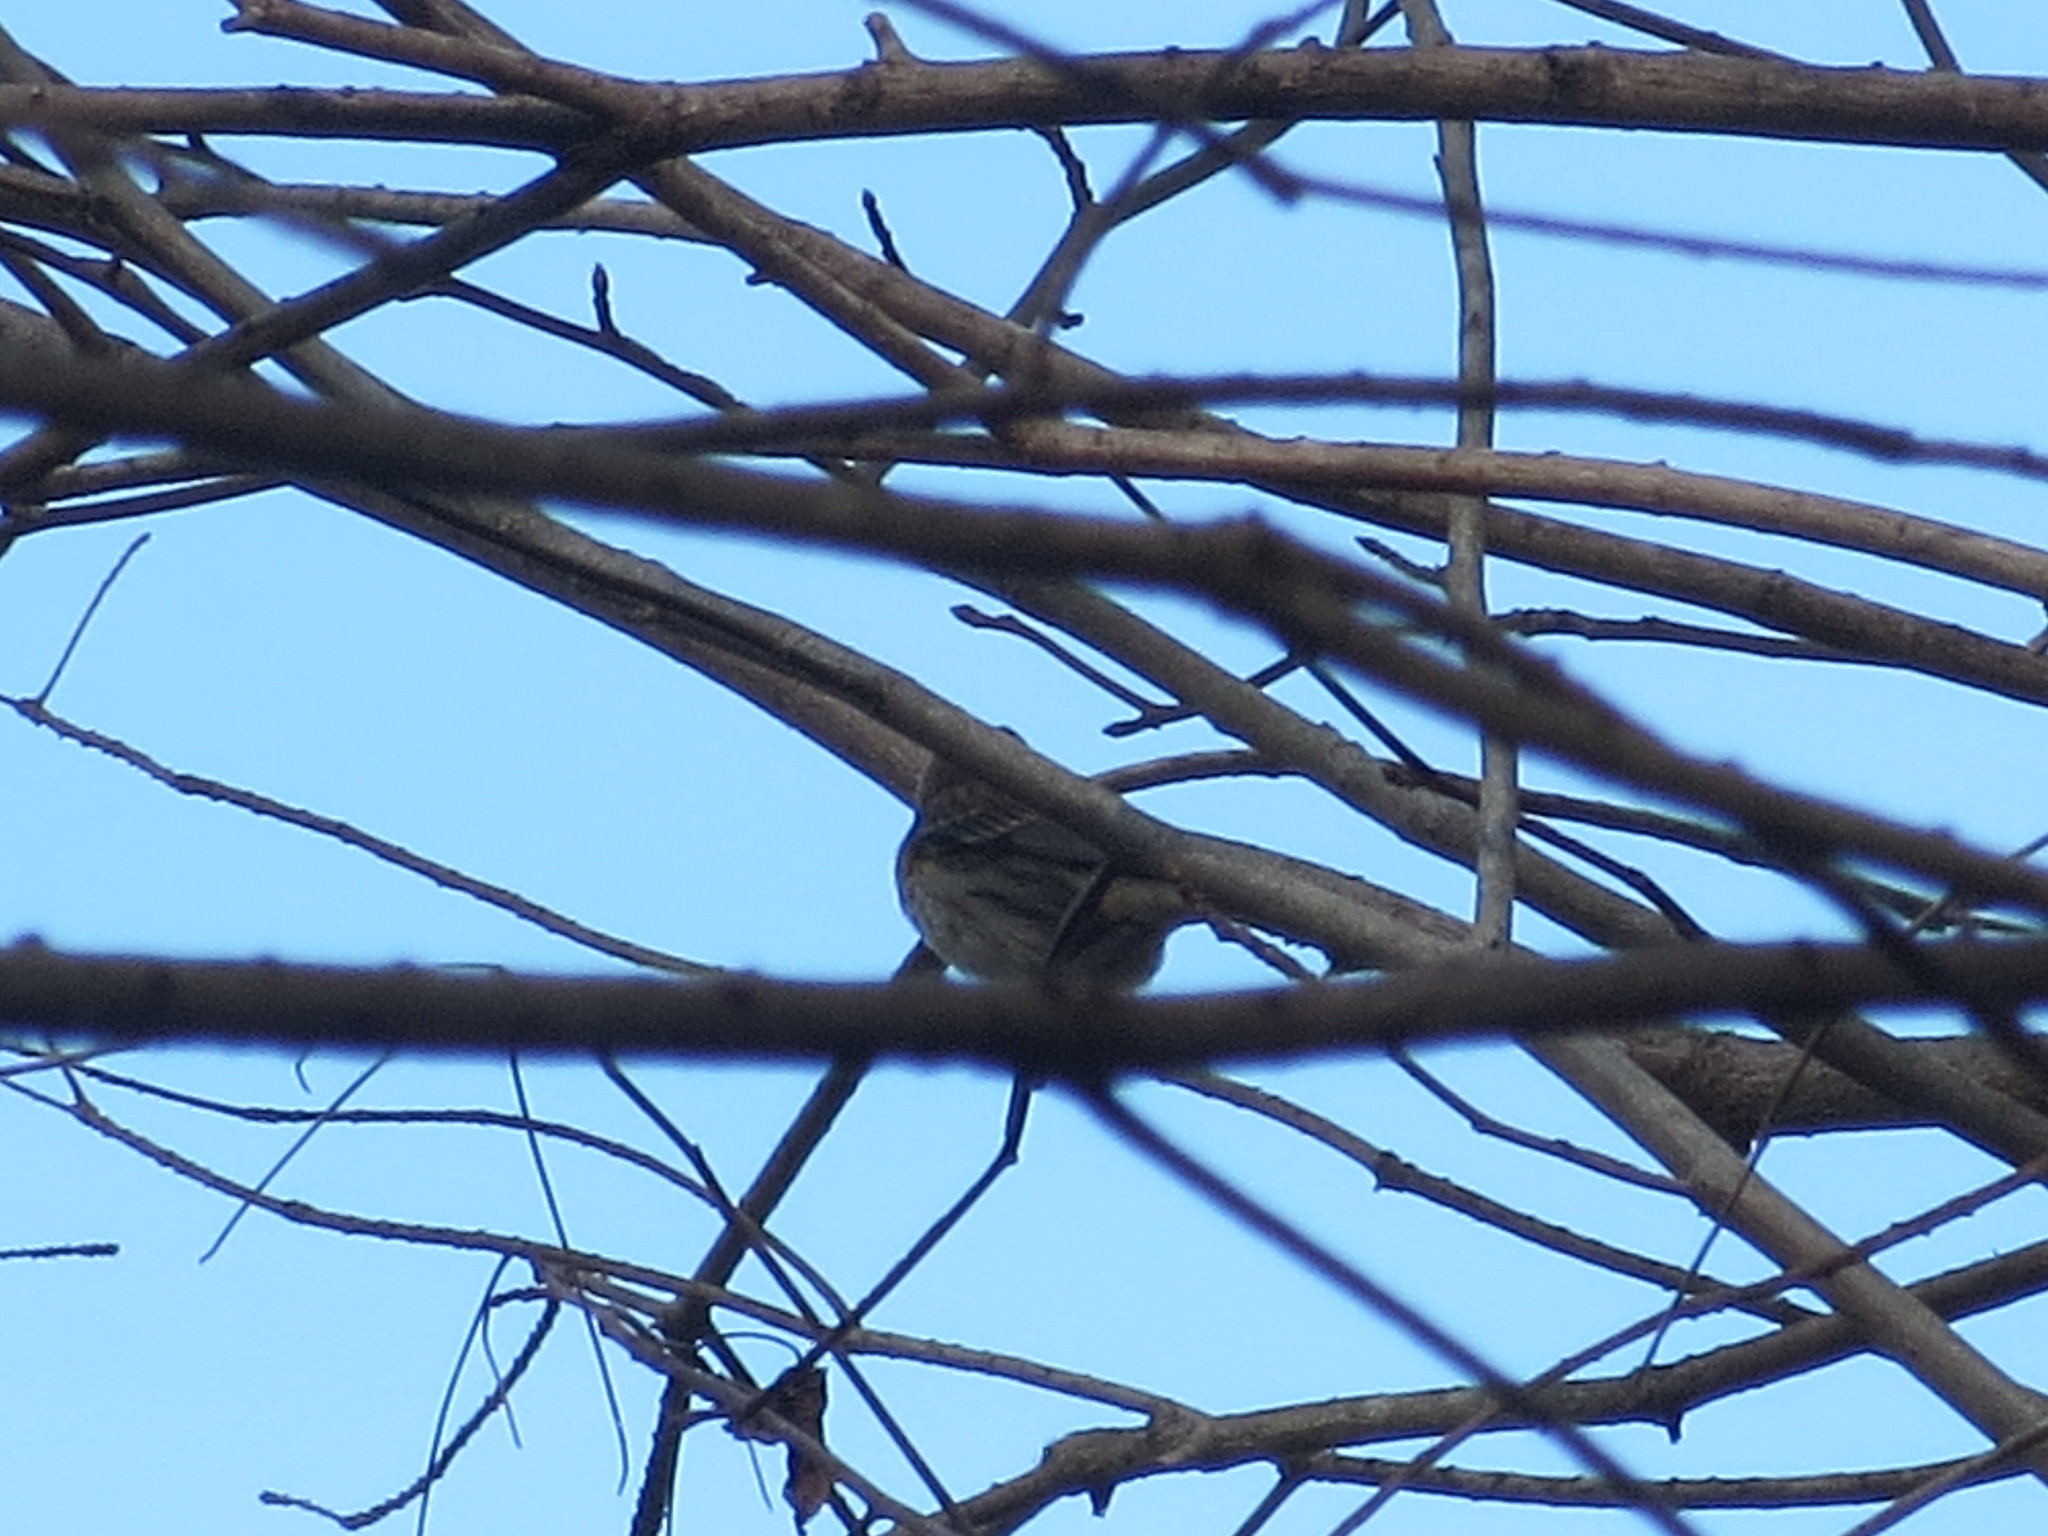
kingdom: Animalia
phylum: Chordata
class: Aves
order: Passeriformes
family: Parulidae
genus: Setophaga
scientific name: Setophaga coronata
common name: Myrtle warbler
